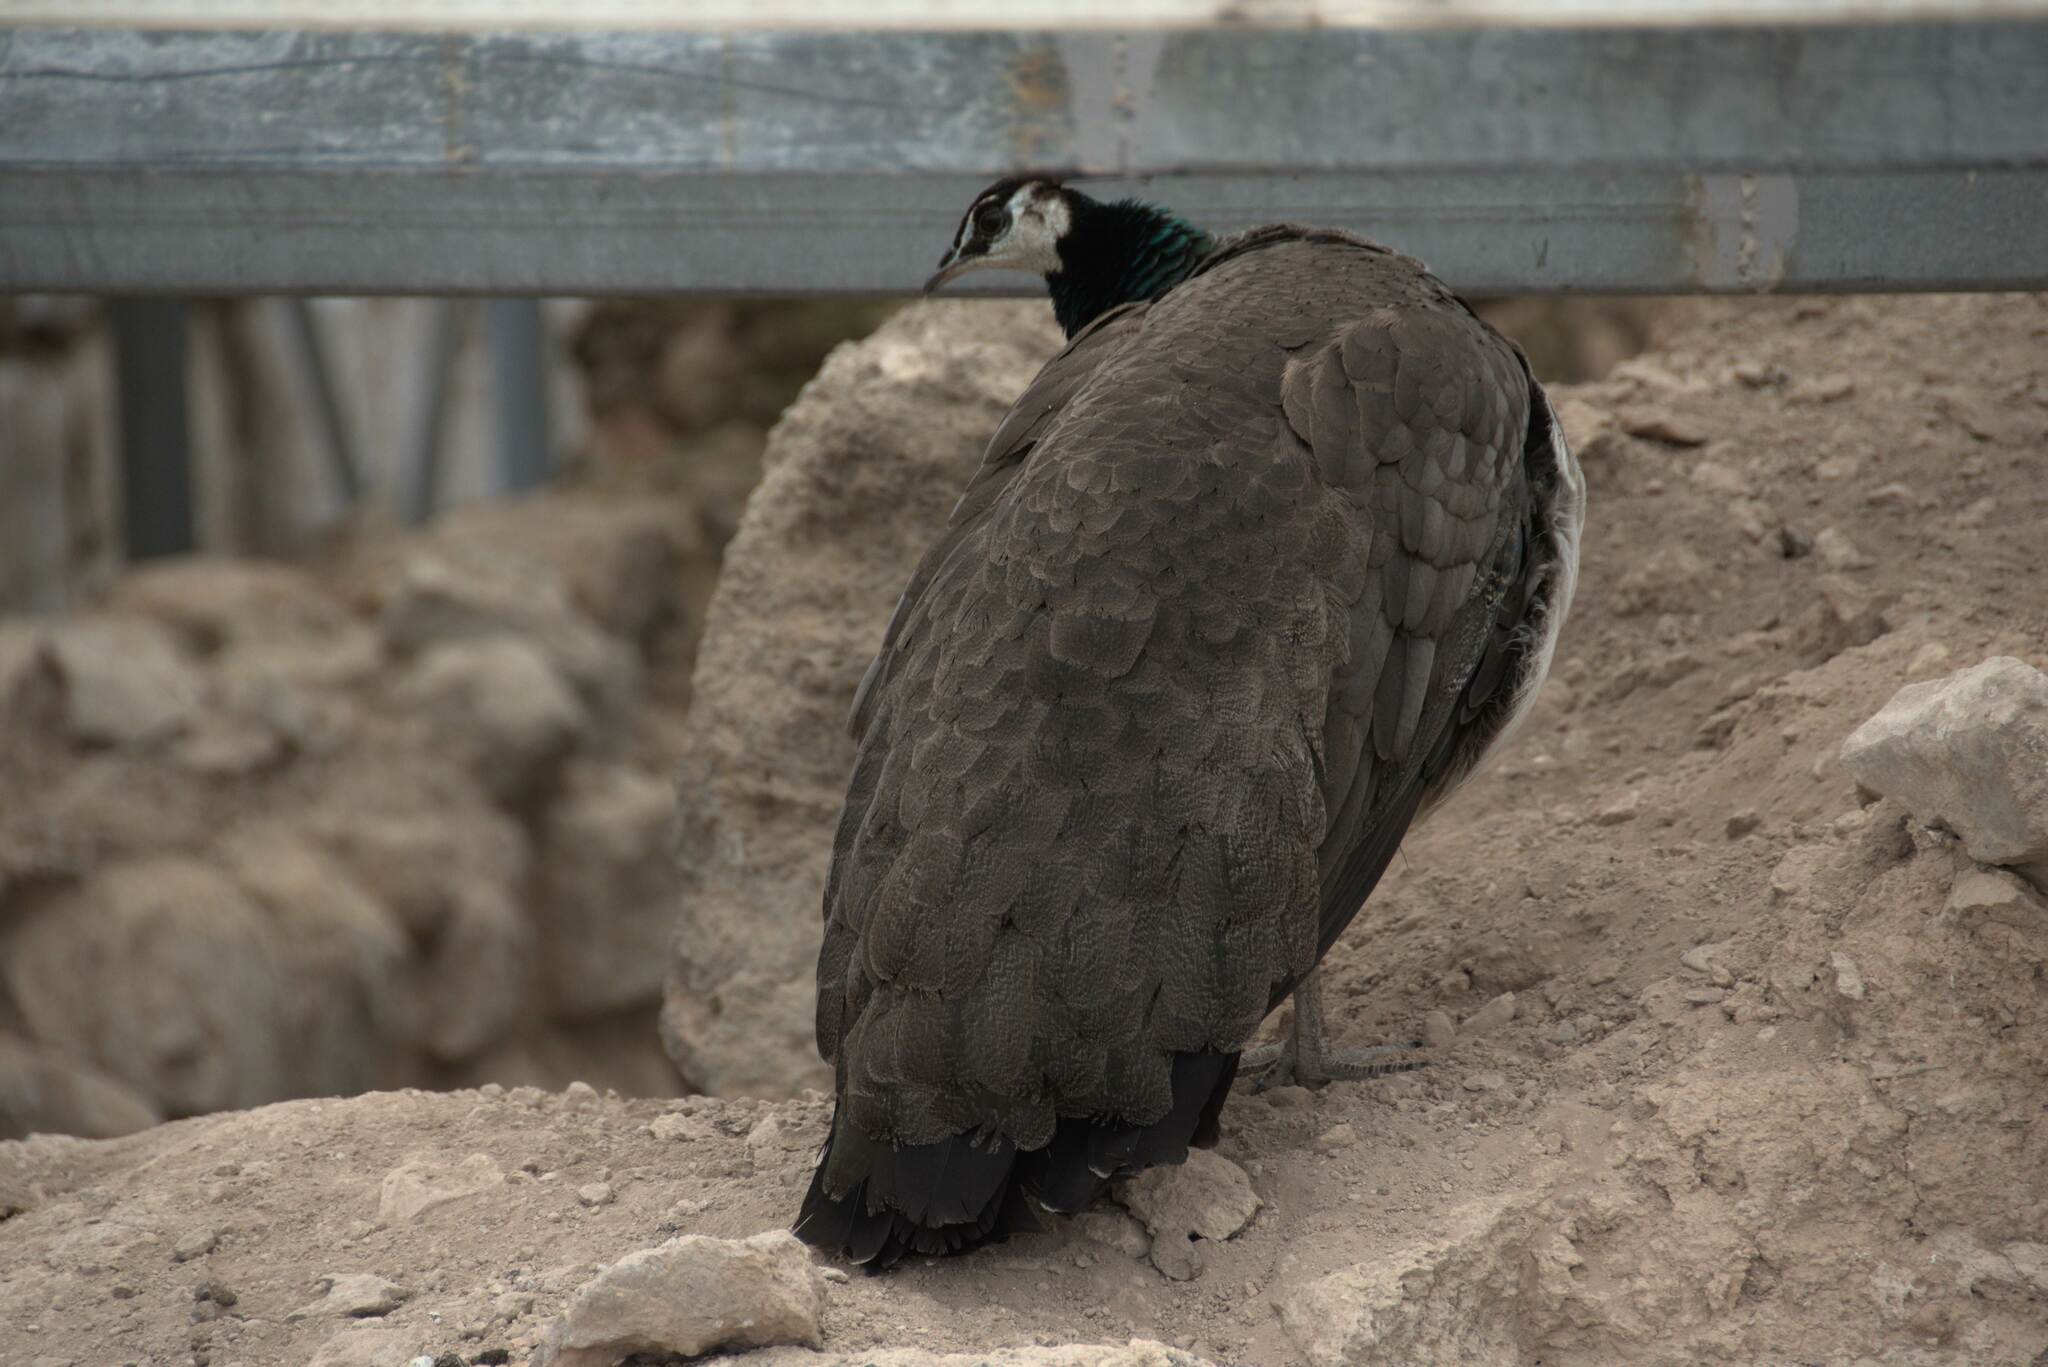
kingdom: Animalia
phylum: Chordata
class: Aves
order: Galliformes
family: Phasianidae
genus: Pavo
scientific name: Pavo cristatus
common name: Indian peafowl
